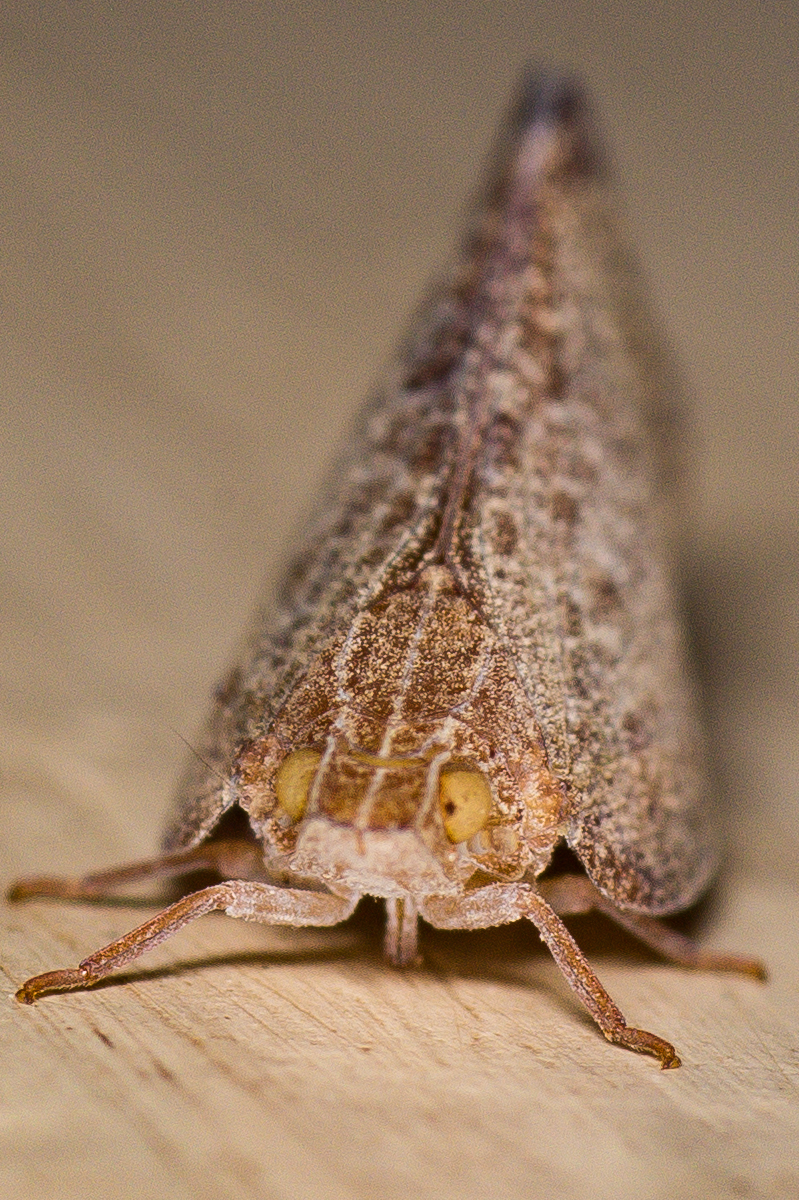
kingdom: Animalia
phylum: Arthropoda
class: Insecta
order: Hemiptera
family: Ricaniidae
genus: Ricamela
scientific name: Ricamela
